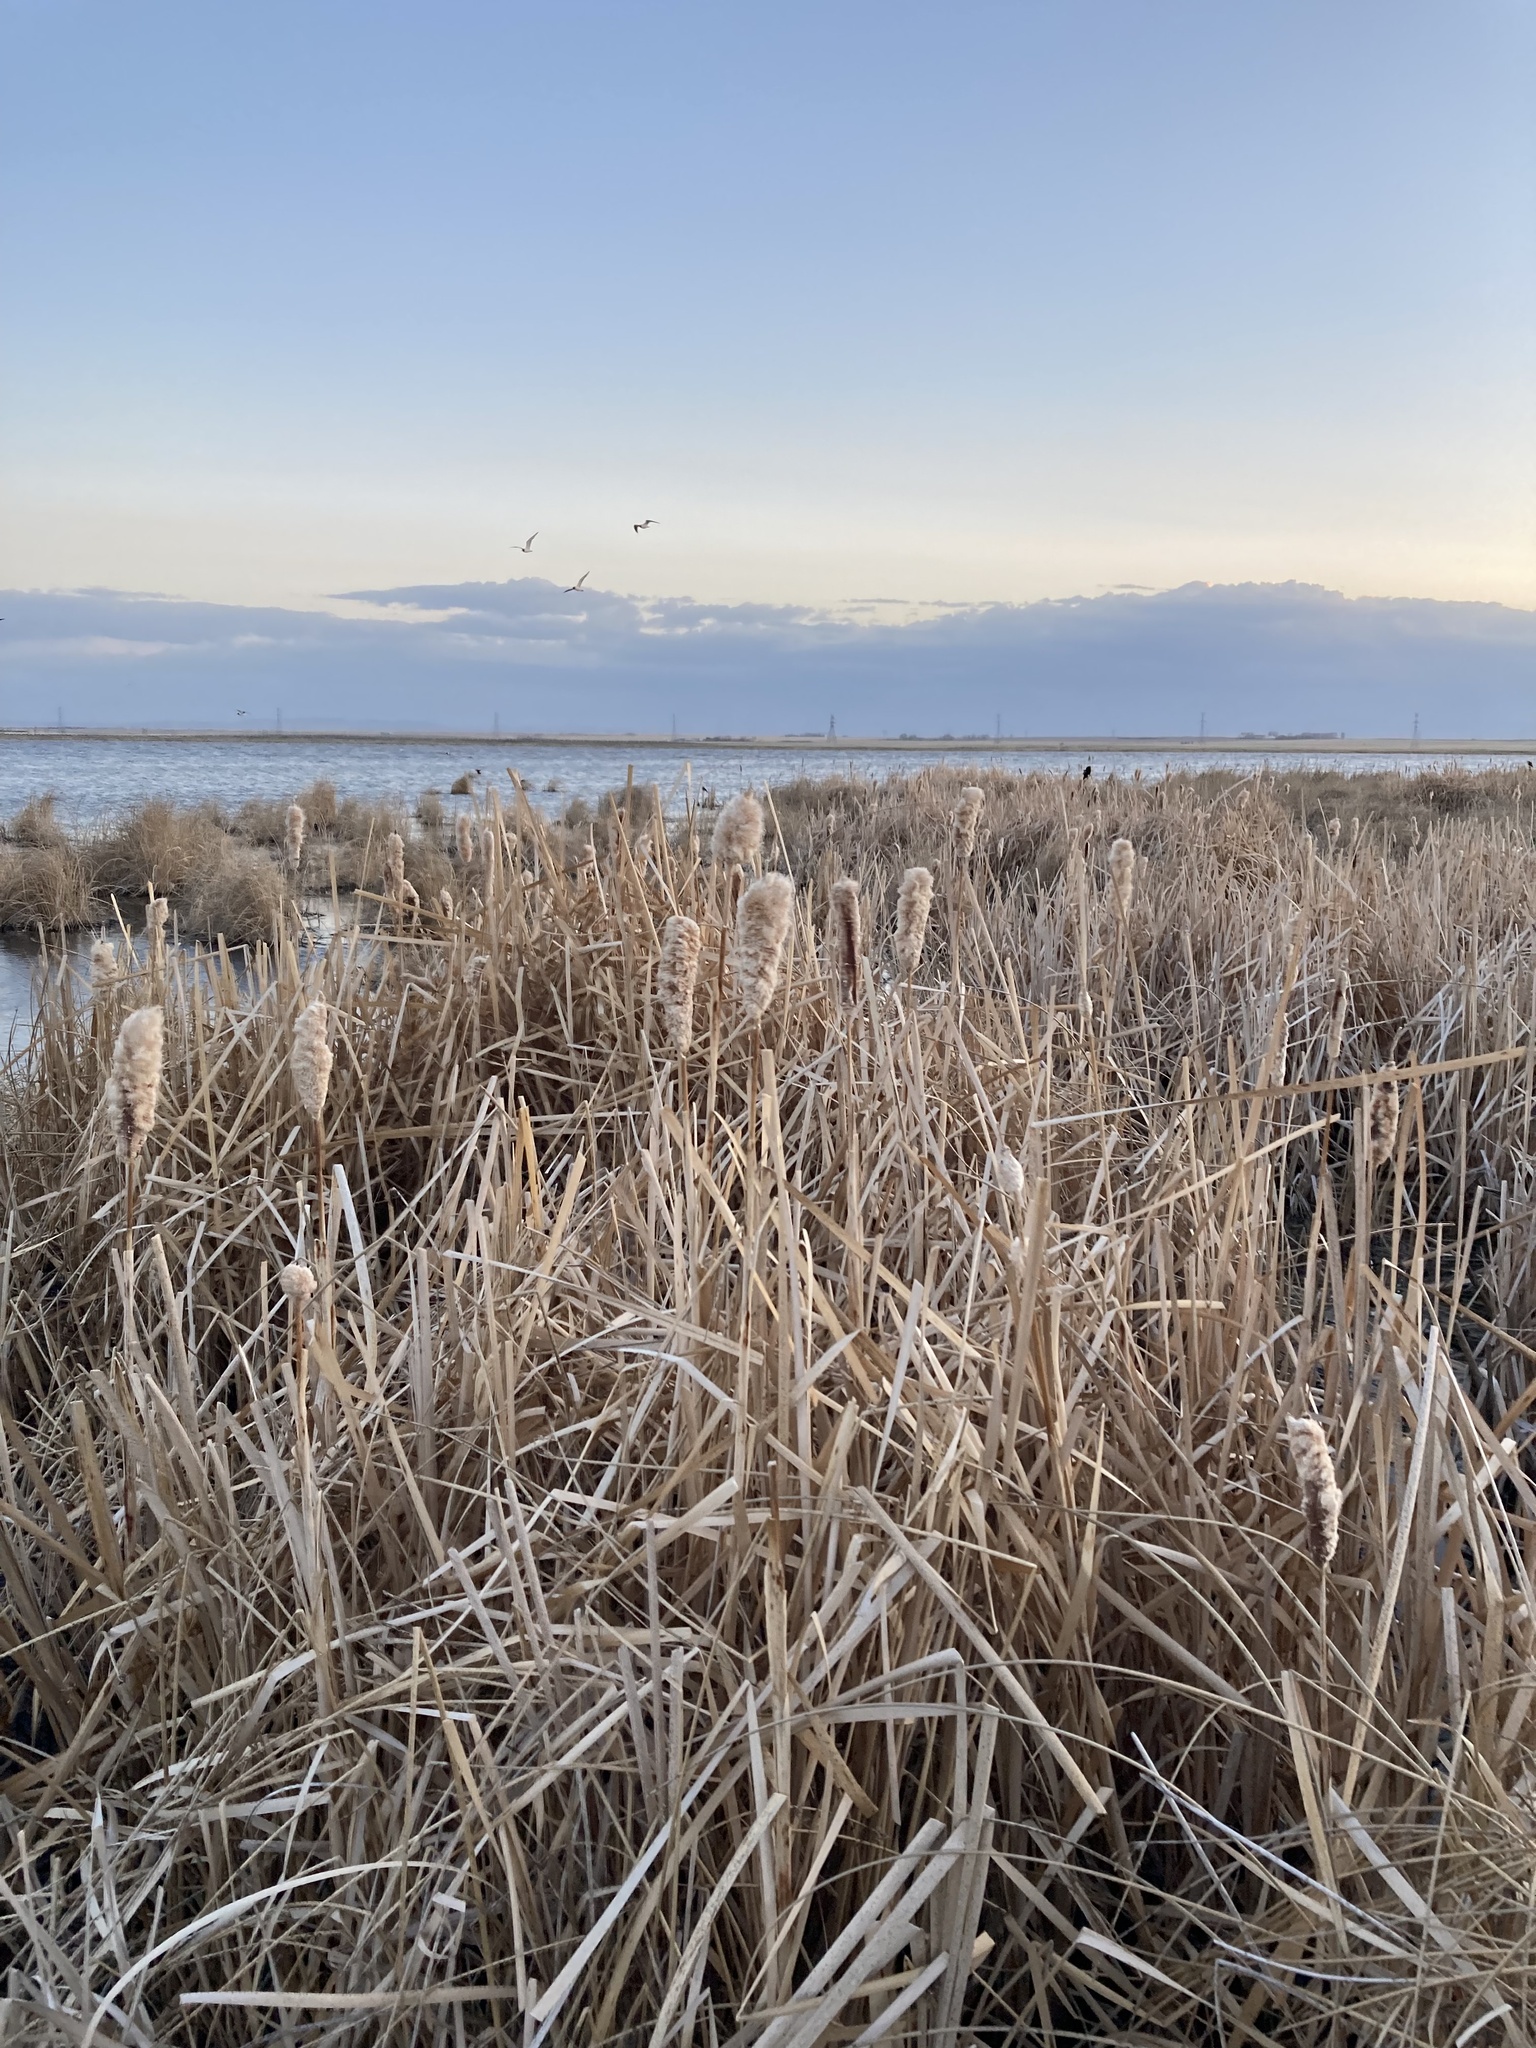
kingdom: Plantae
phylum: Tracheophyta
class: Liliopsida
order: Poales
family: Typhaceae
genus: Typha
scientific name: Typha latifolia
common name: Broadleaf cattail
